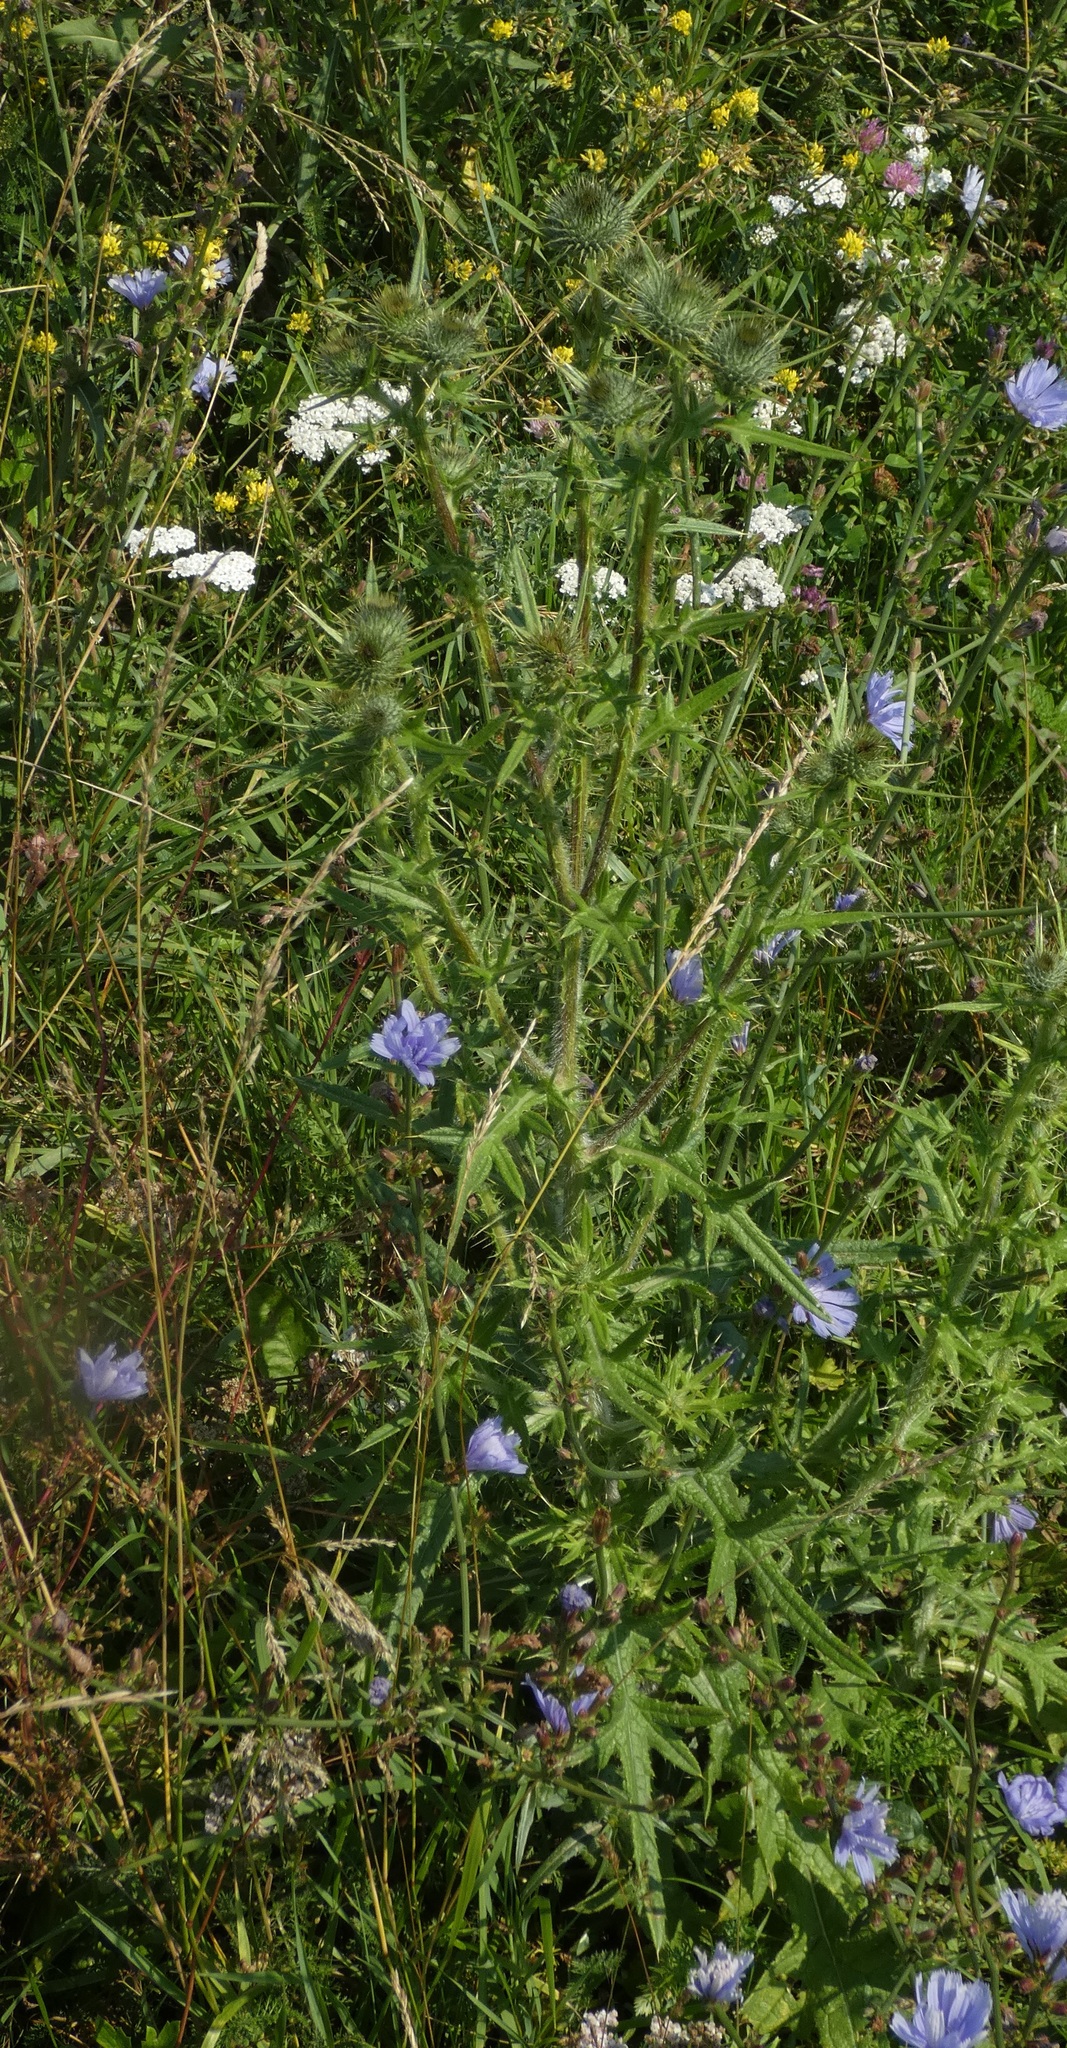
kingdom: Plantae
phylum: Tracheophyta
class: Magnoliopsida
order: Asterales
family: Asteraceae
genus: Cirsium
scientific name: Cirsium vulgare
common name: Bull thistle
